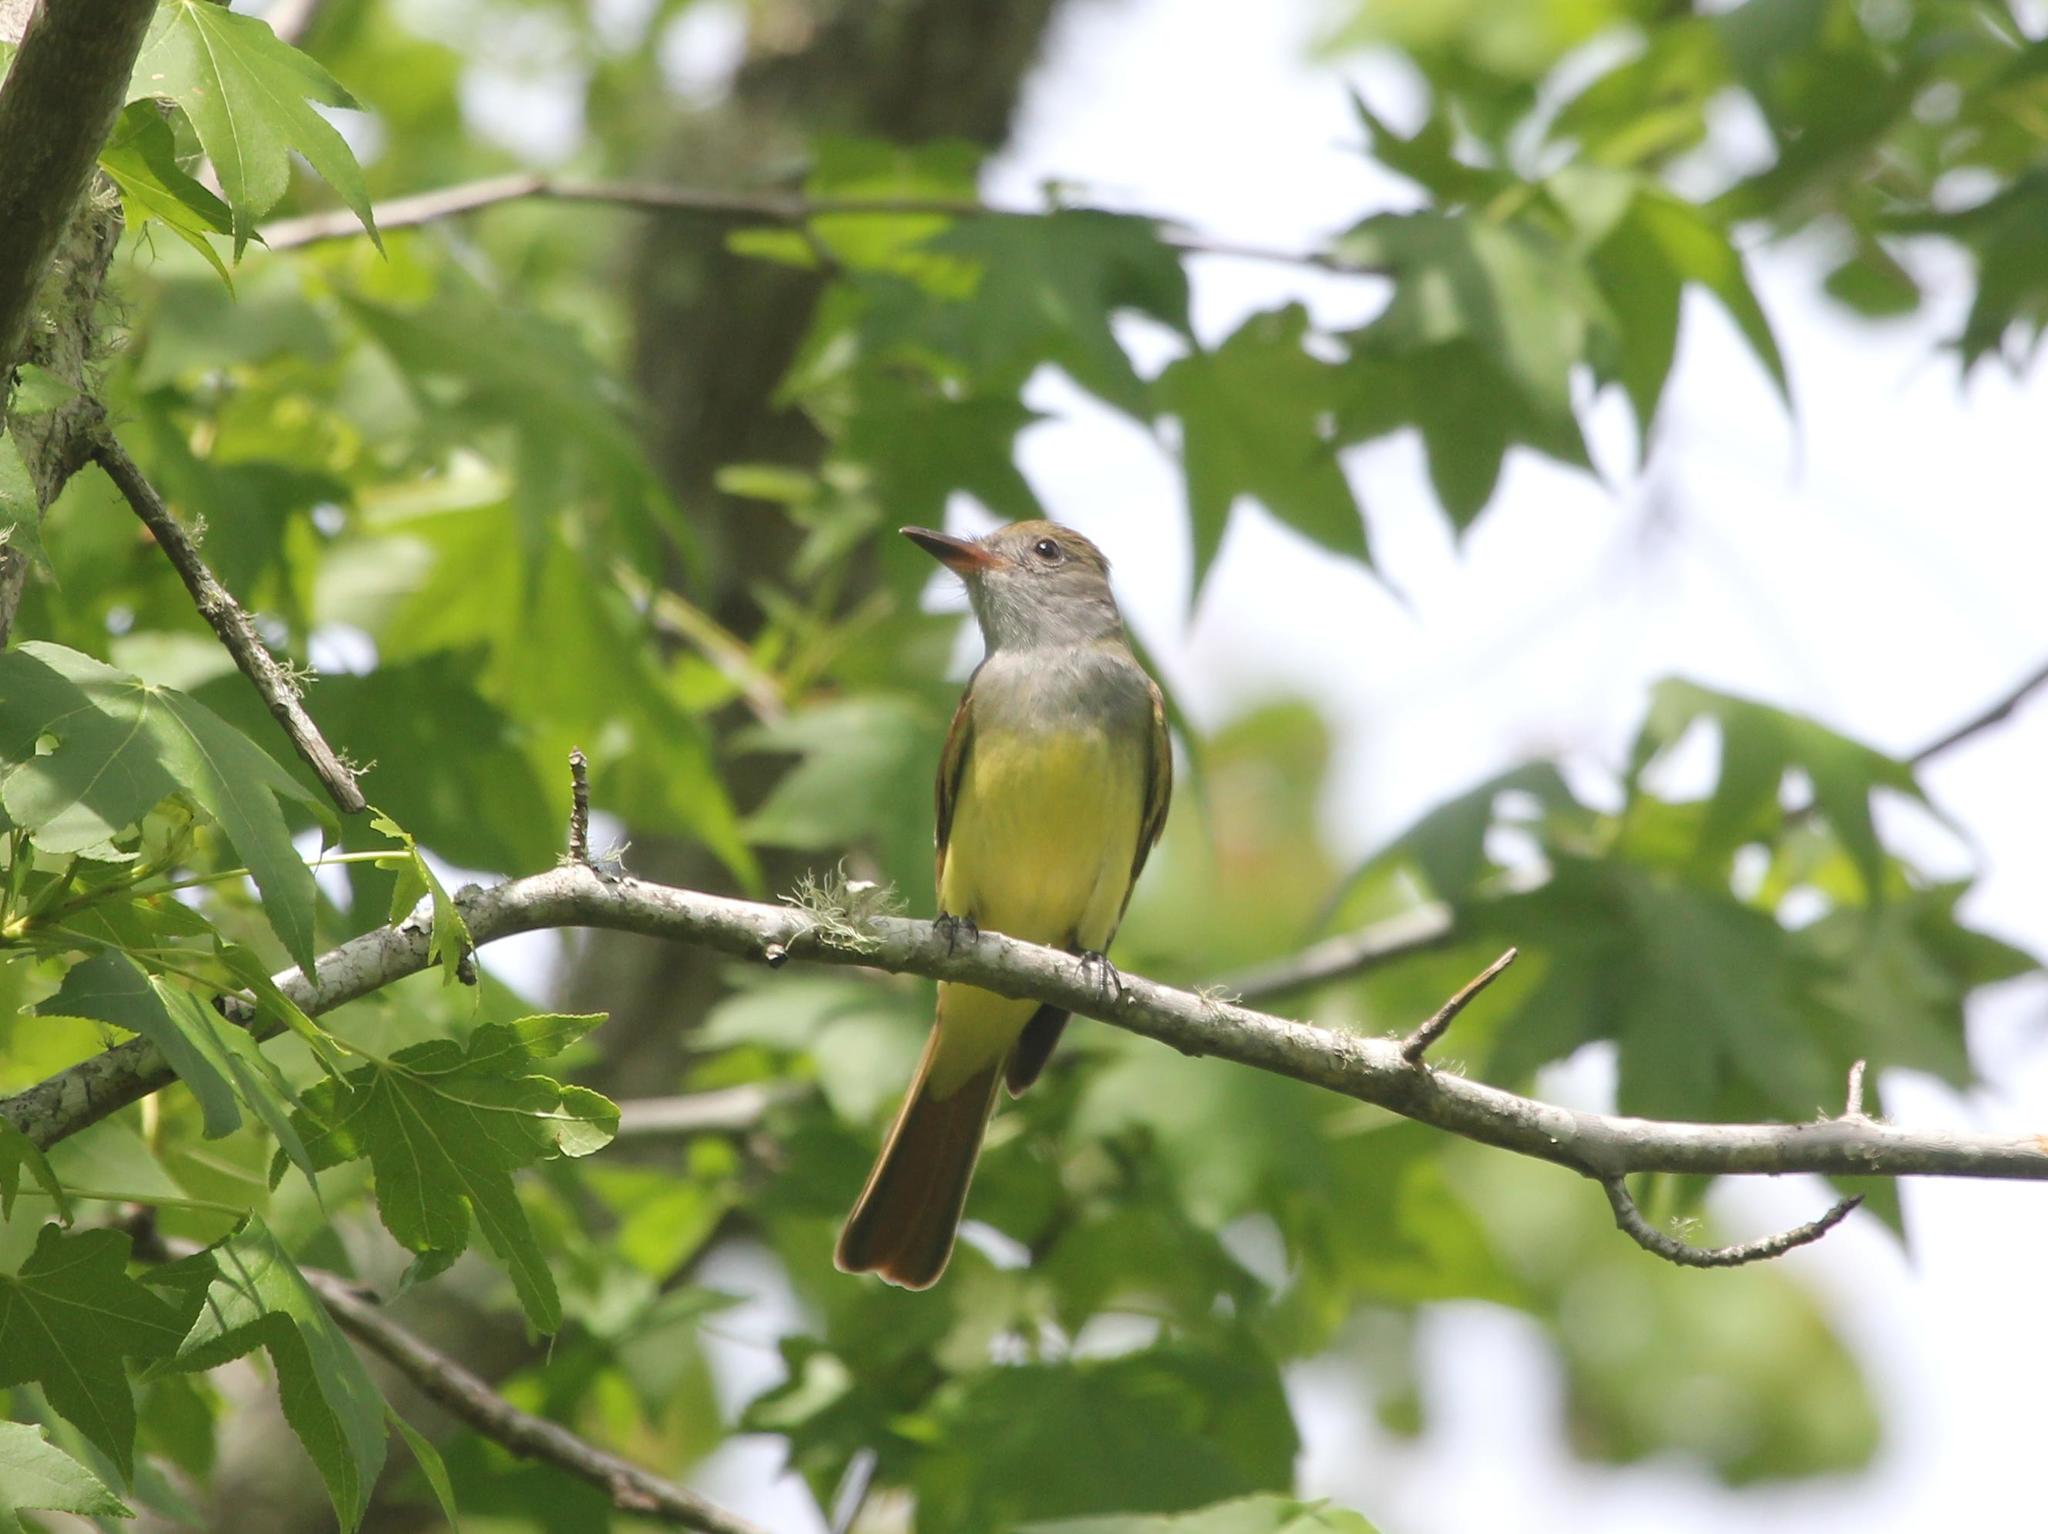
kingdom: Animalia
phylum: Chordata
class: Aves
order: Passeriformes
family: Tyrannidae
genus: Myiarchus
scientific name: Myiarchus crinitus
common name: Great crested flycatcher
